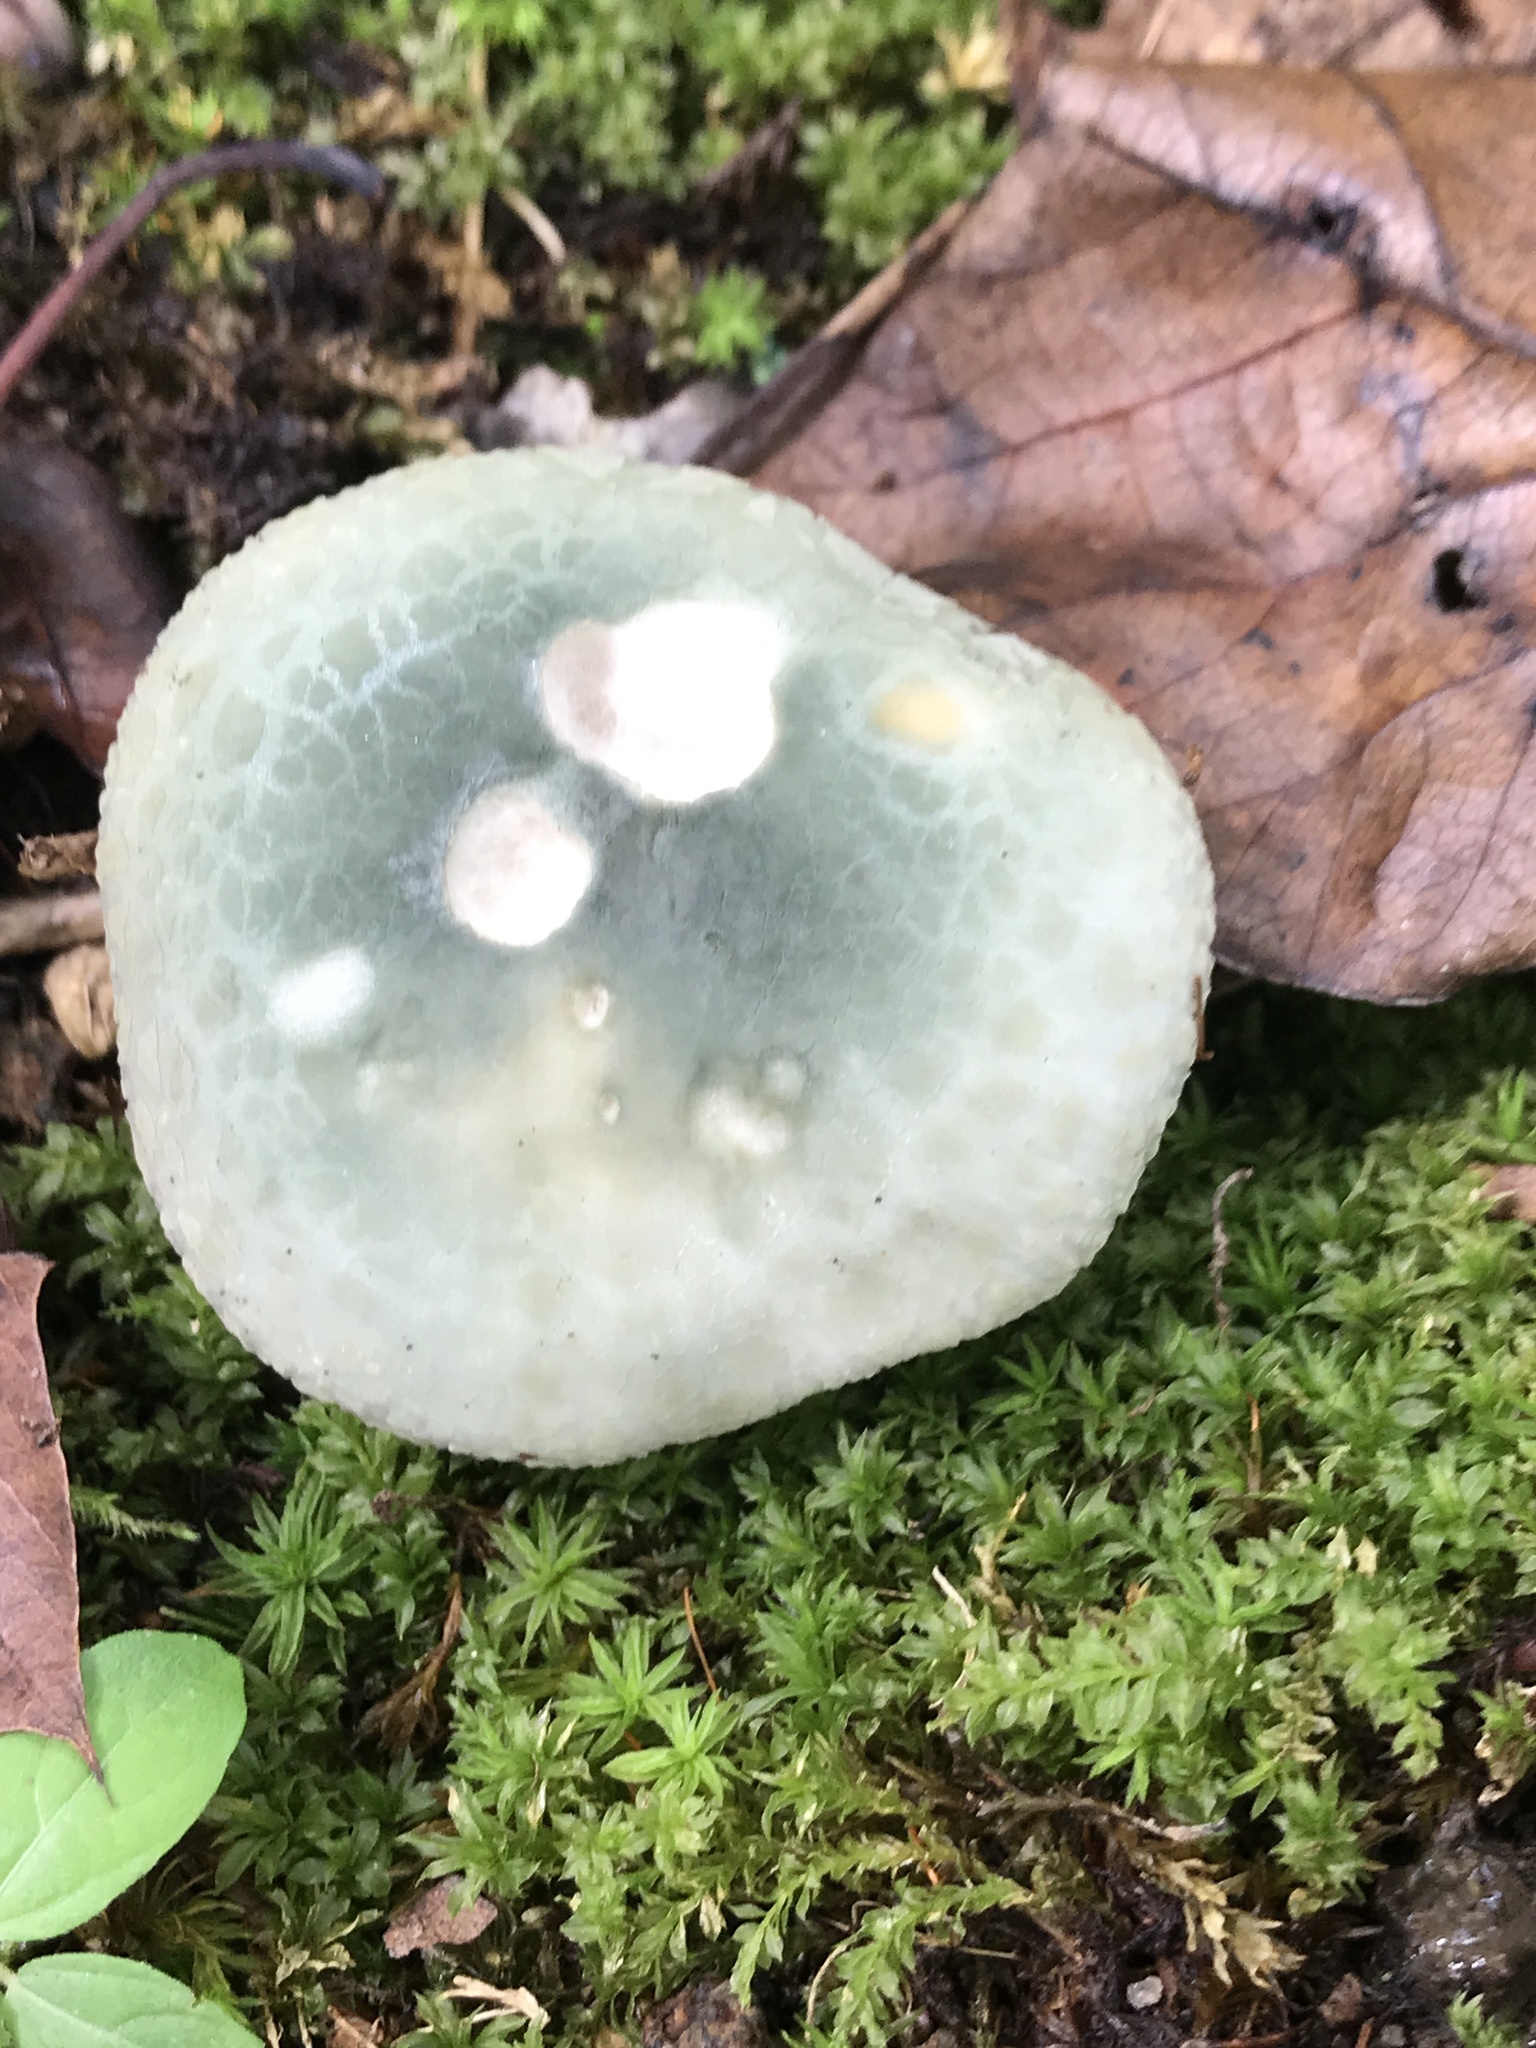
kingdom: Fungi
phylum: Basidiomycota
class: Agaricomycetes
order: Russulales
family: Russulaceae
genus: Russula
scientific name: Russula parvovirescens
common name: Blue-green cracking russula
